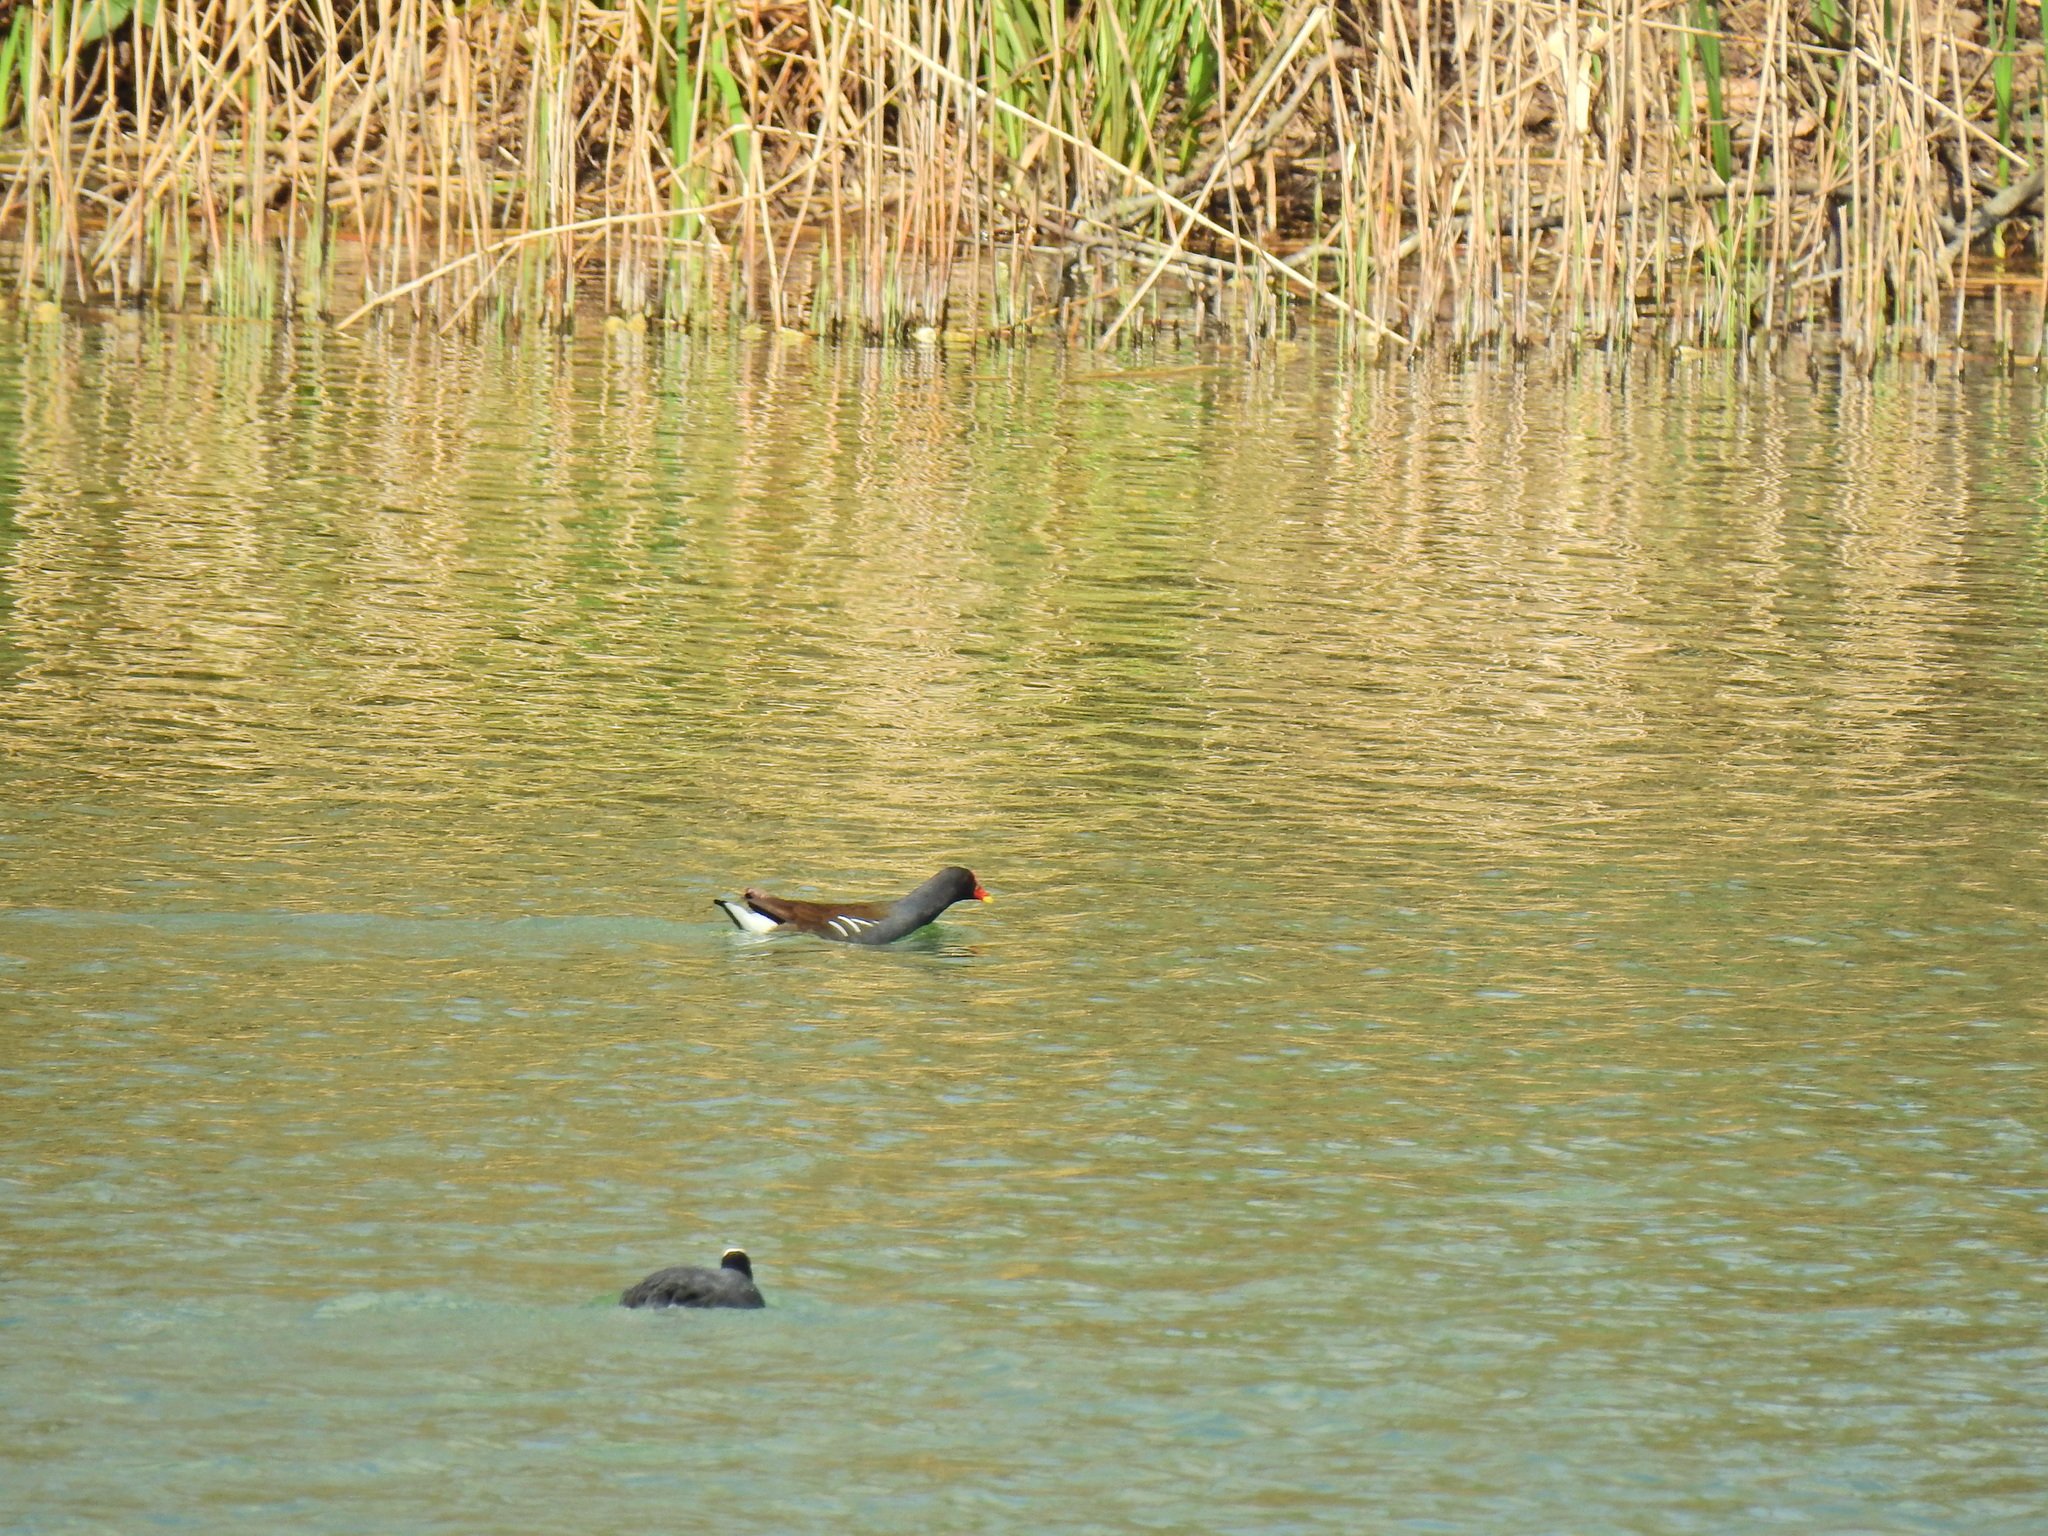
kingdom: Animalia
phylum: Chordata
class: Aves
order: Gruiformes
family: Rallidae
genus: Gallinula
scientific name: Gallinula chloropus
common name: Common moorhen
